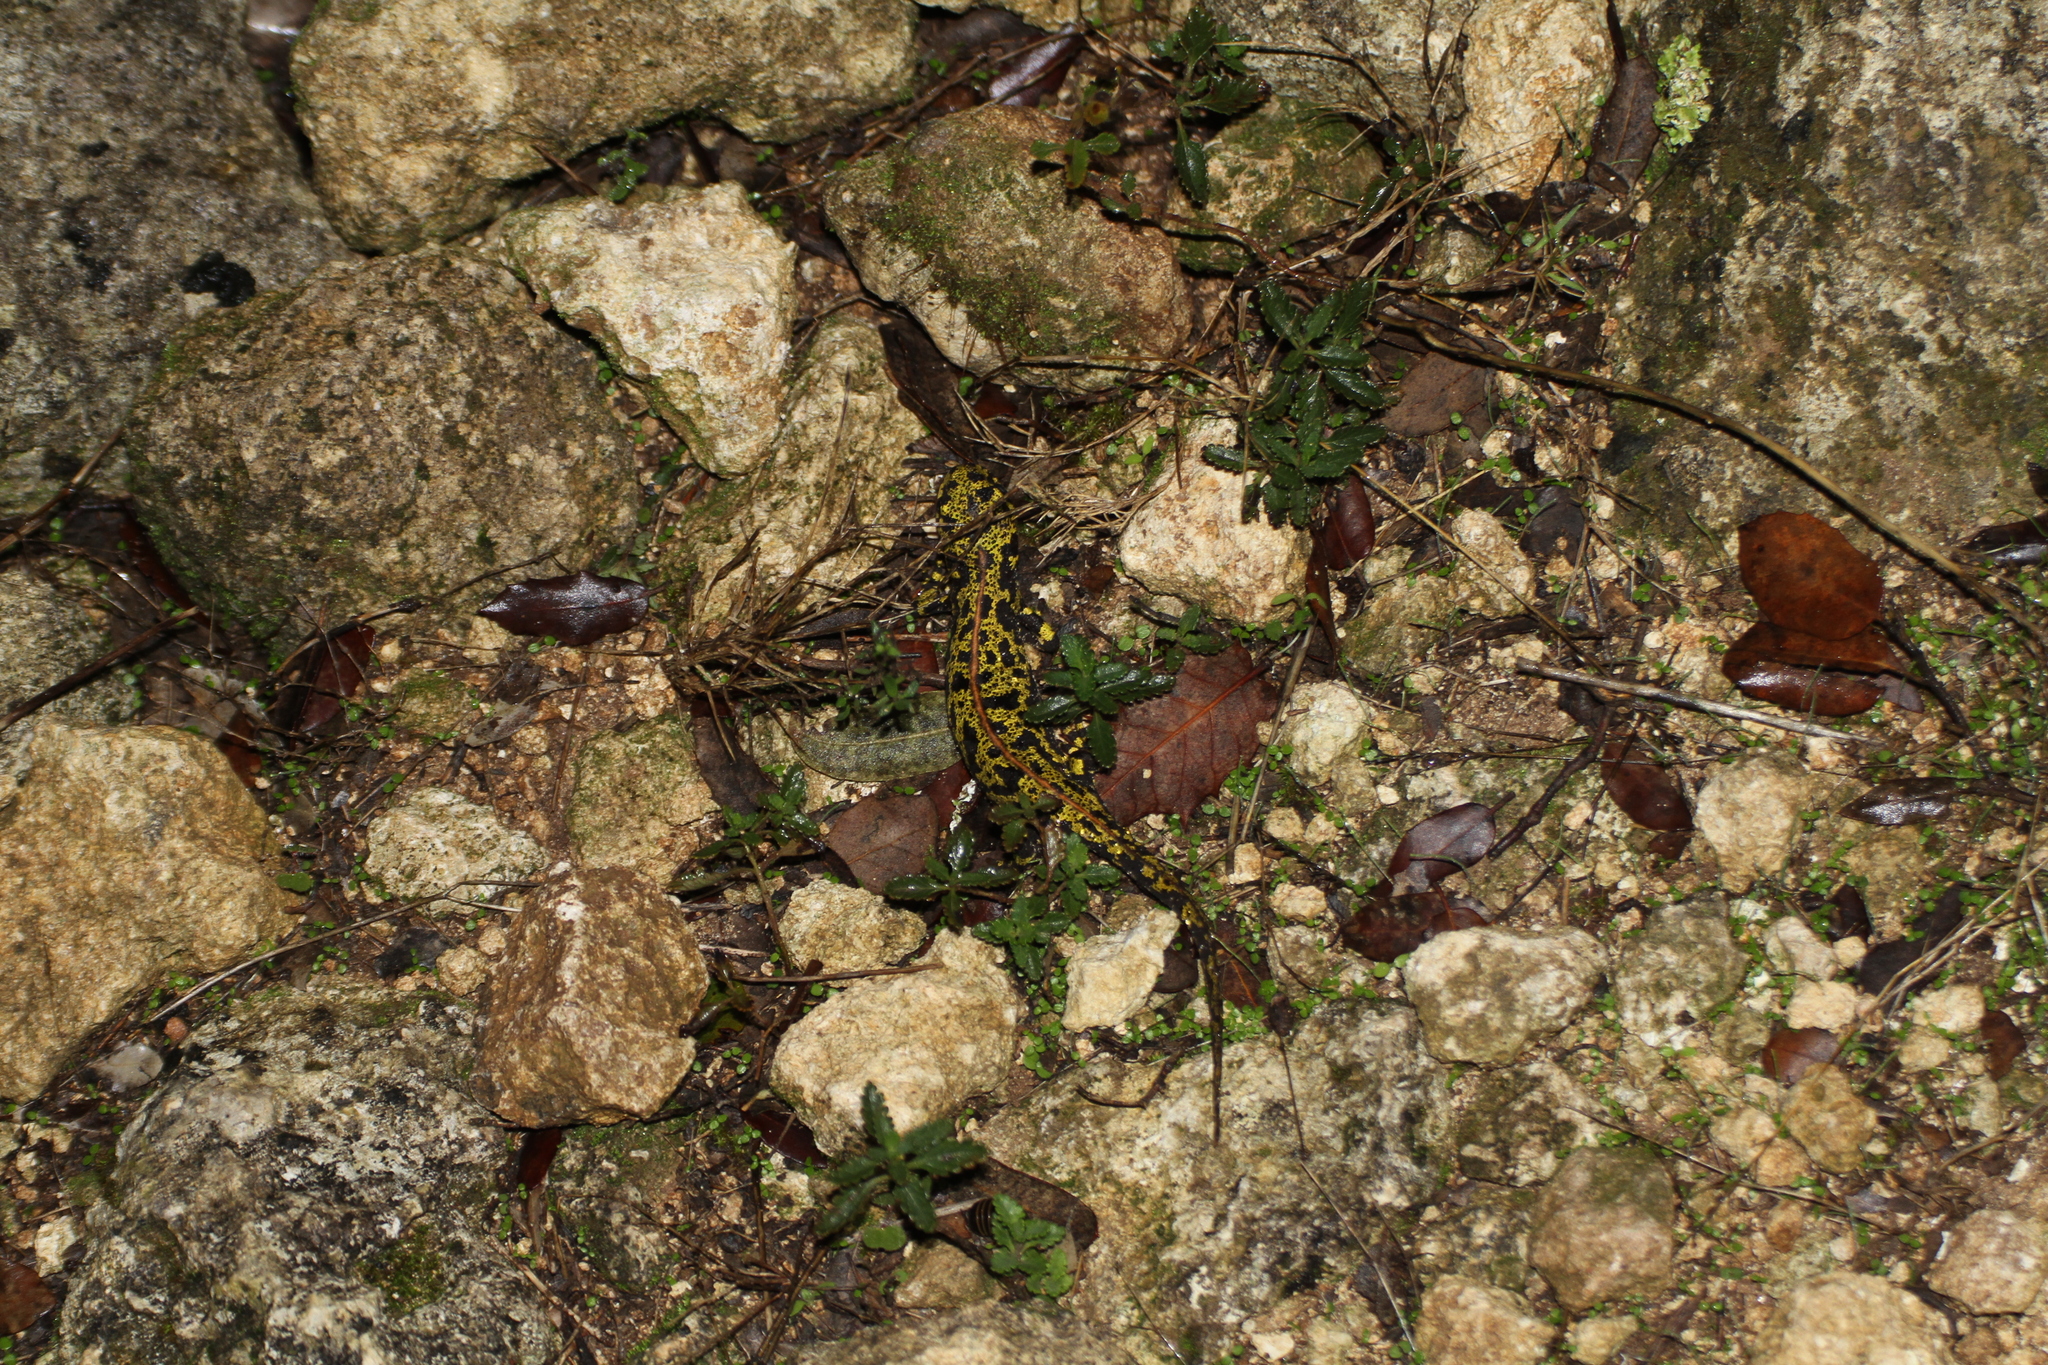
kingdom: Animalia
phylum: Chordata
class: Amphibia
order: Caudata
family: Salamandridae
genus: Triturus
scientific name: Triturus marmoratus
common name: Marbled newt
